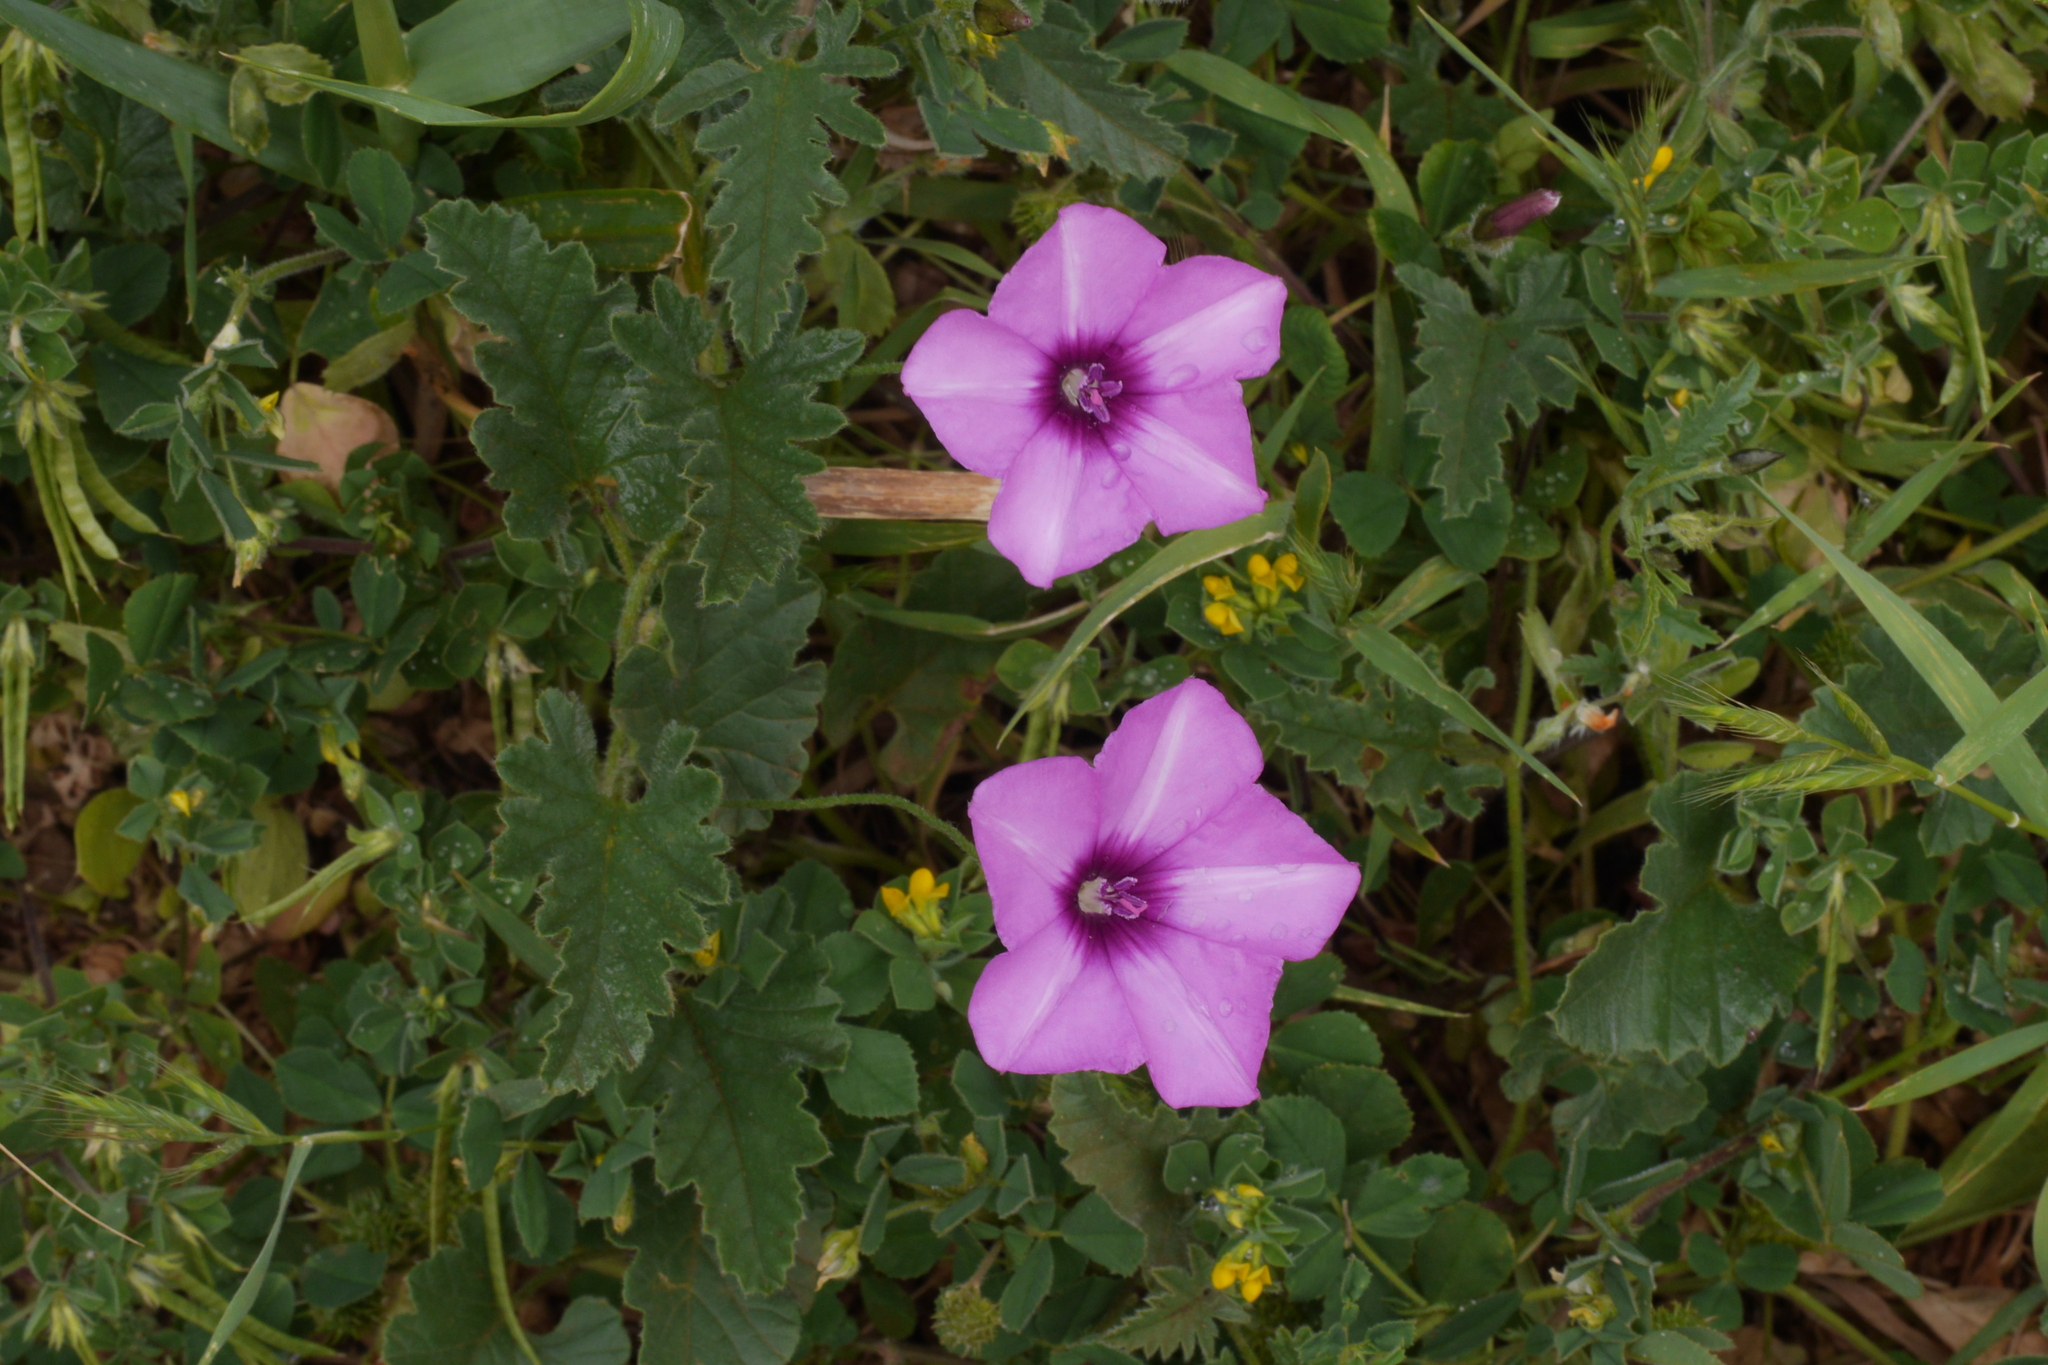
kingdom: Plantae
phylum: Tracheophyta
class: Magnoliopsida
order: Solanales
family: Convolvulaceae
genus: Convolvulus
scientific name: Convolvulus althaeoides
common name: Mallow bindweed
